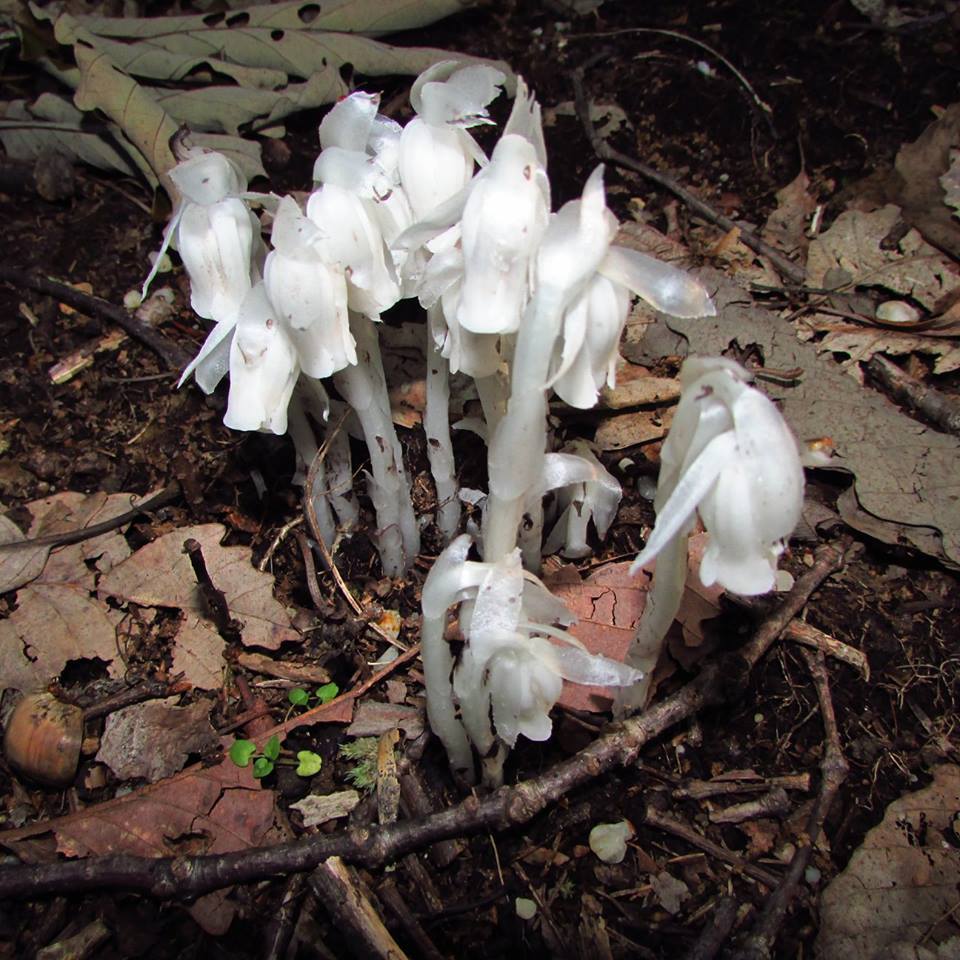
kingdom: Plantae
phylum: Tracheophyta
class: Magnoliopsida
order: Ericales
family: Ericaceae
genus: Monotropa
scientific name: Monotropa uniflora
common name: Convulsion root
